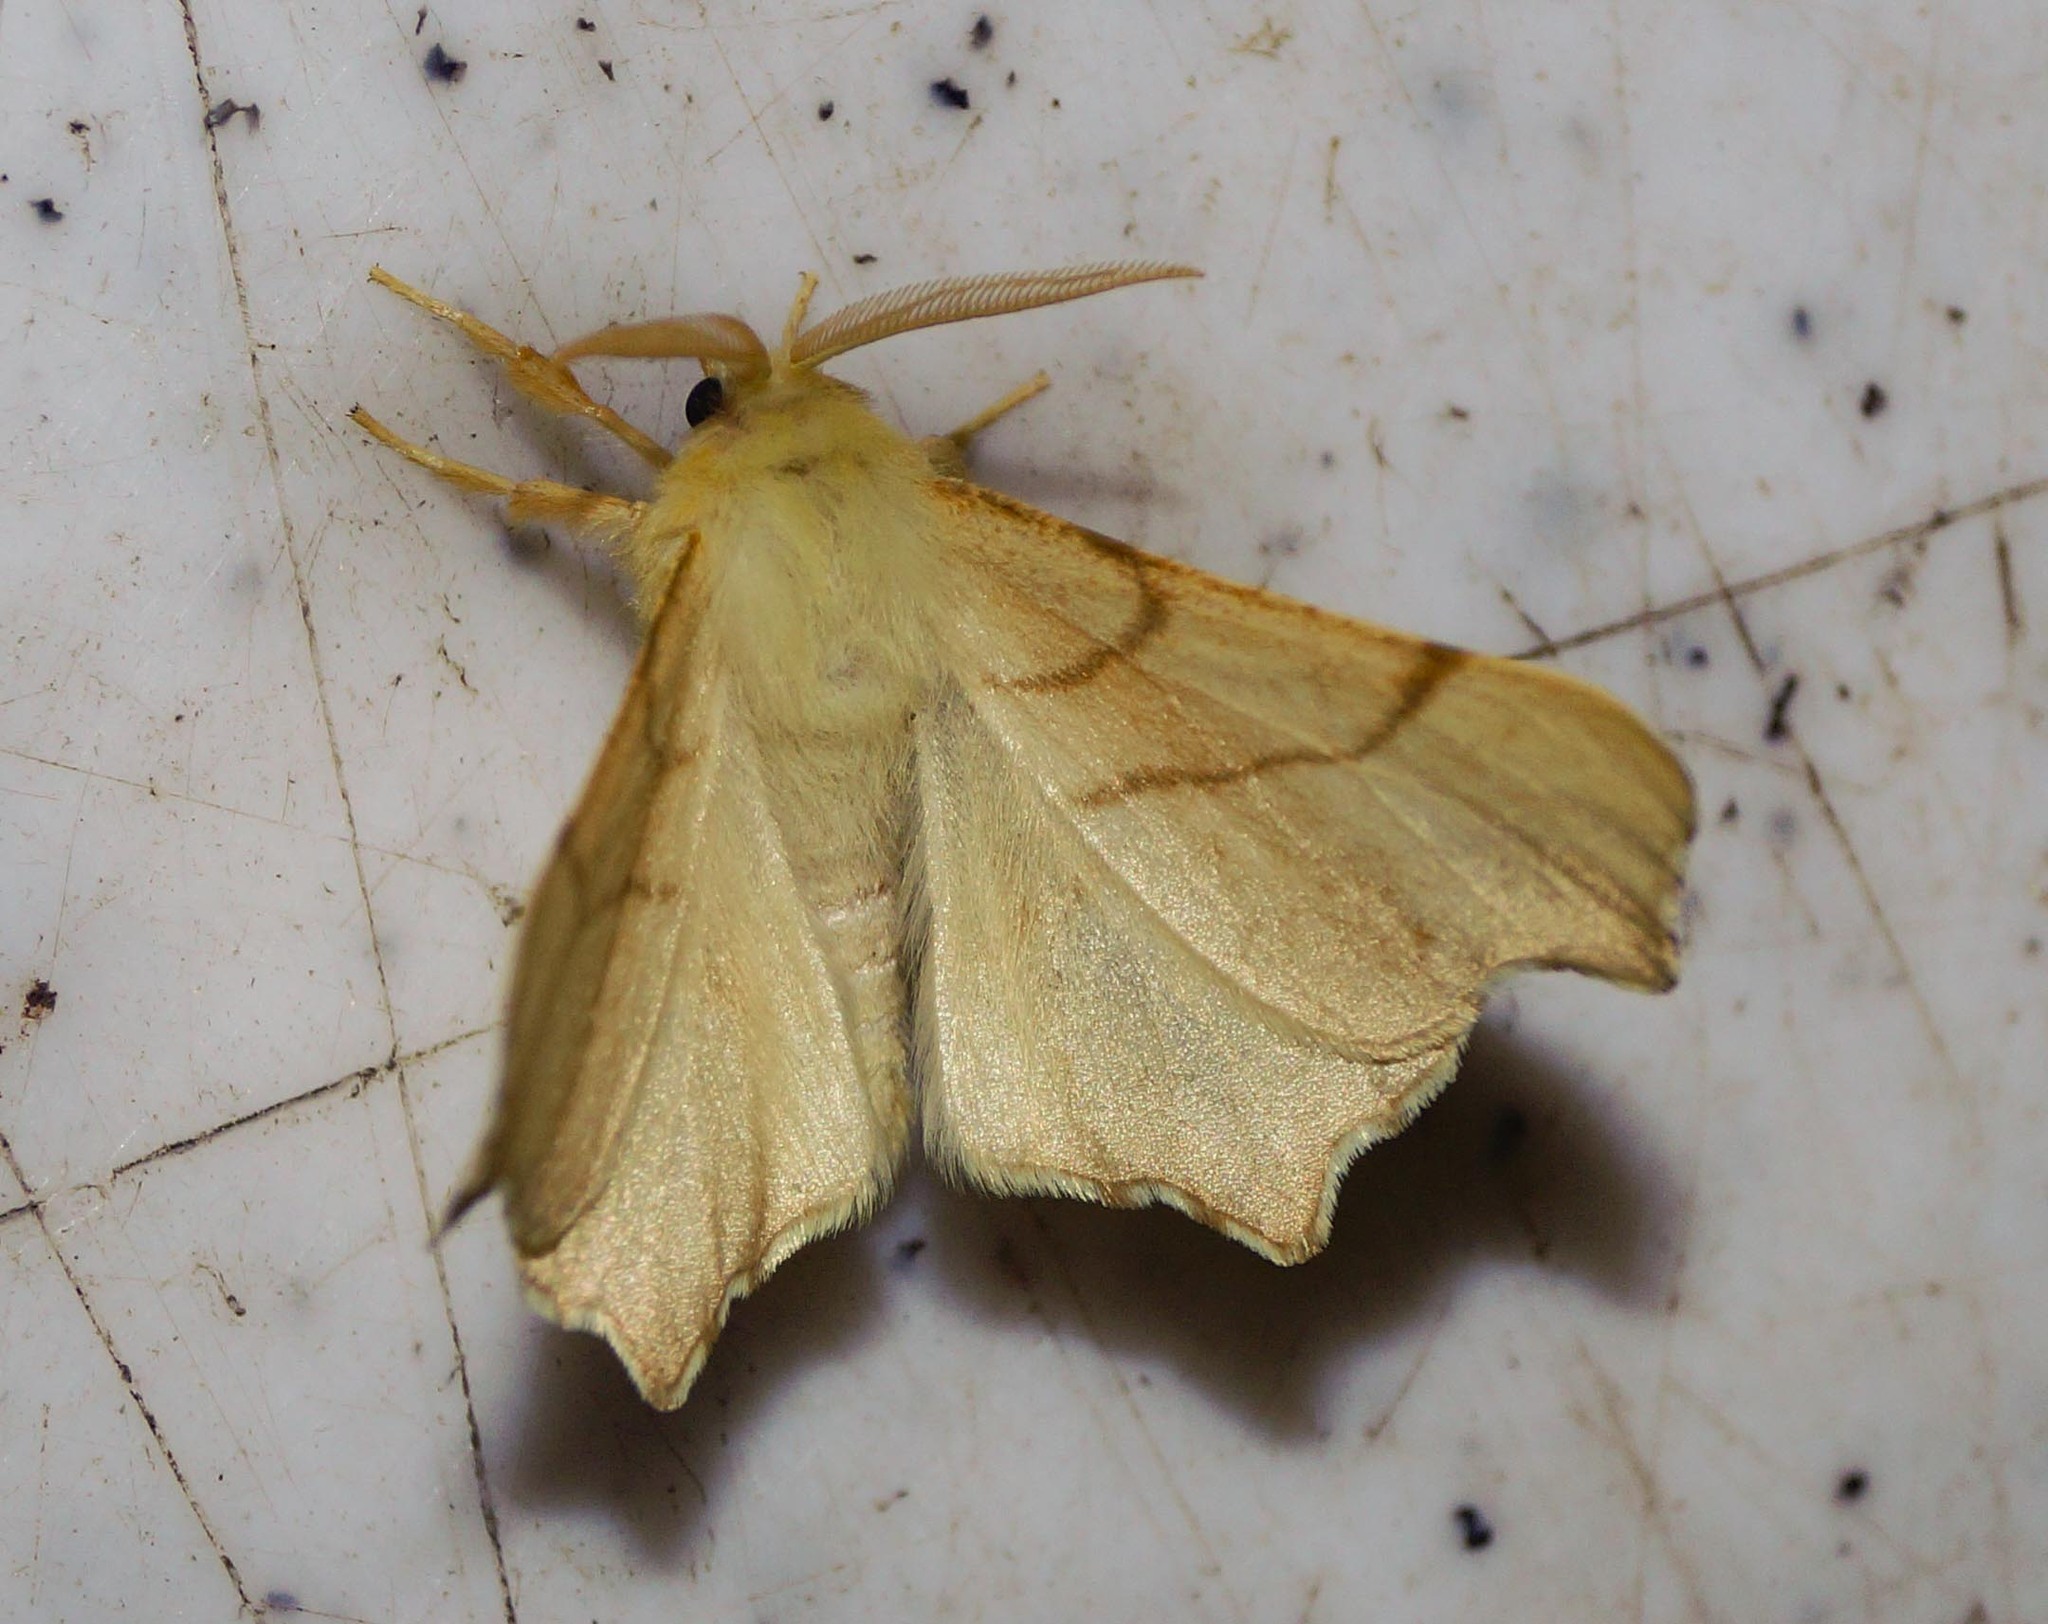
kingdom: Animalia
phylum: Arthropoda
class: Insecta
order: Lepidoptera
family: Geometridae
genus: Ennomos
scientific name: Ennomos erosaria
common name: September thorn
